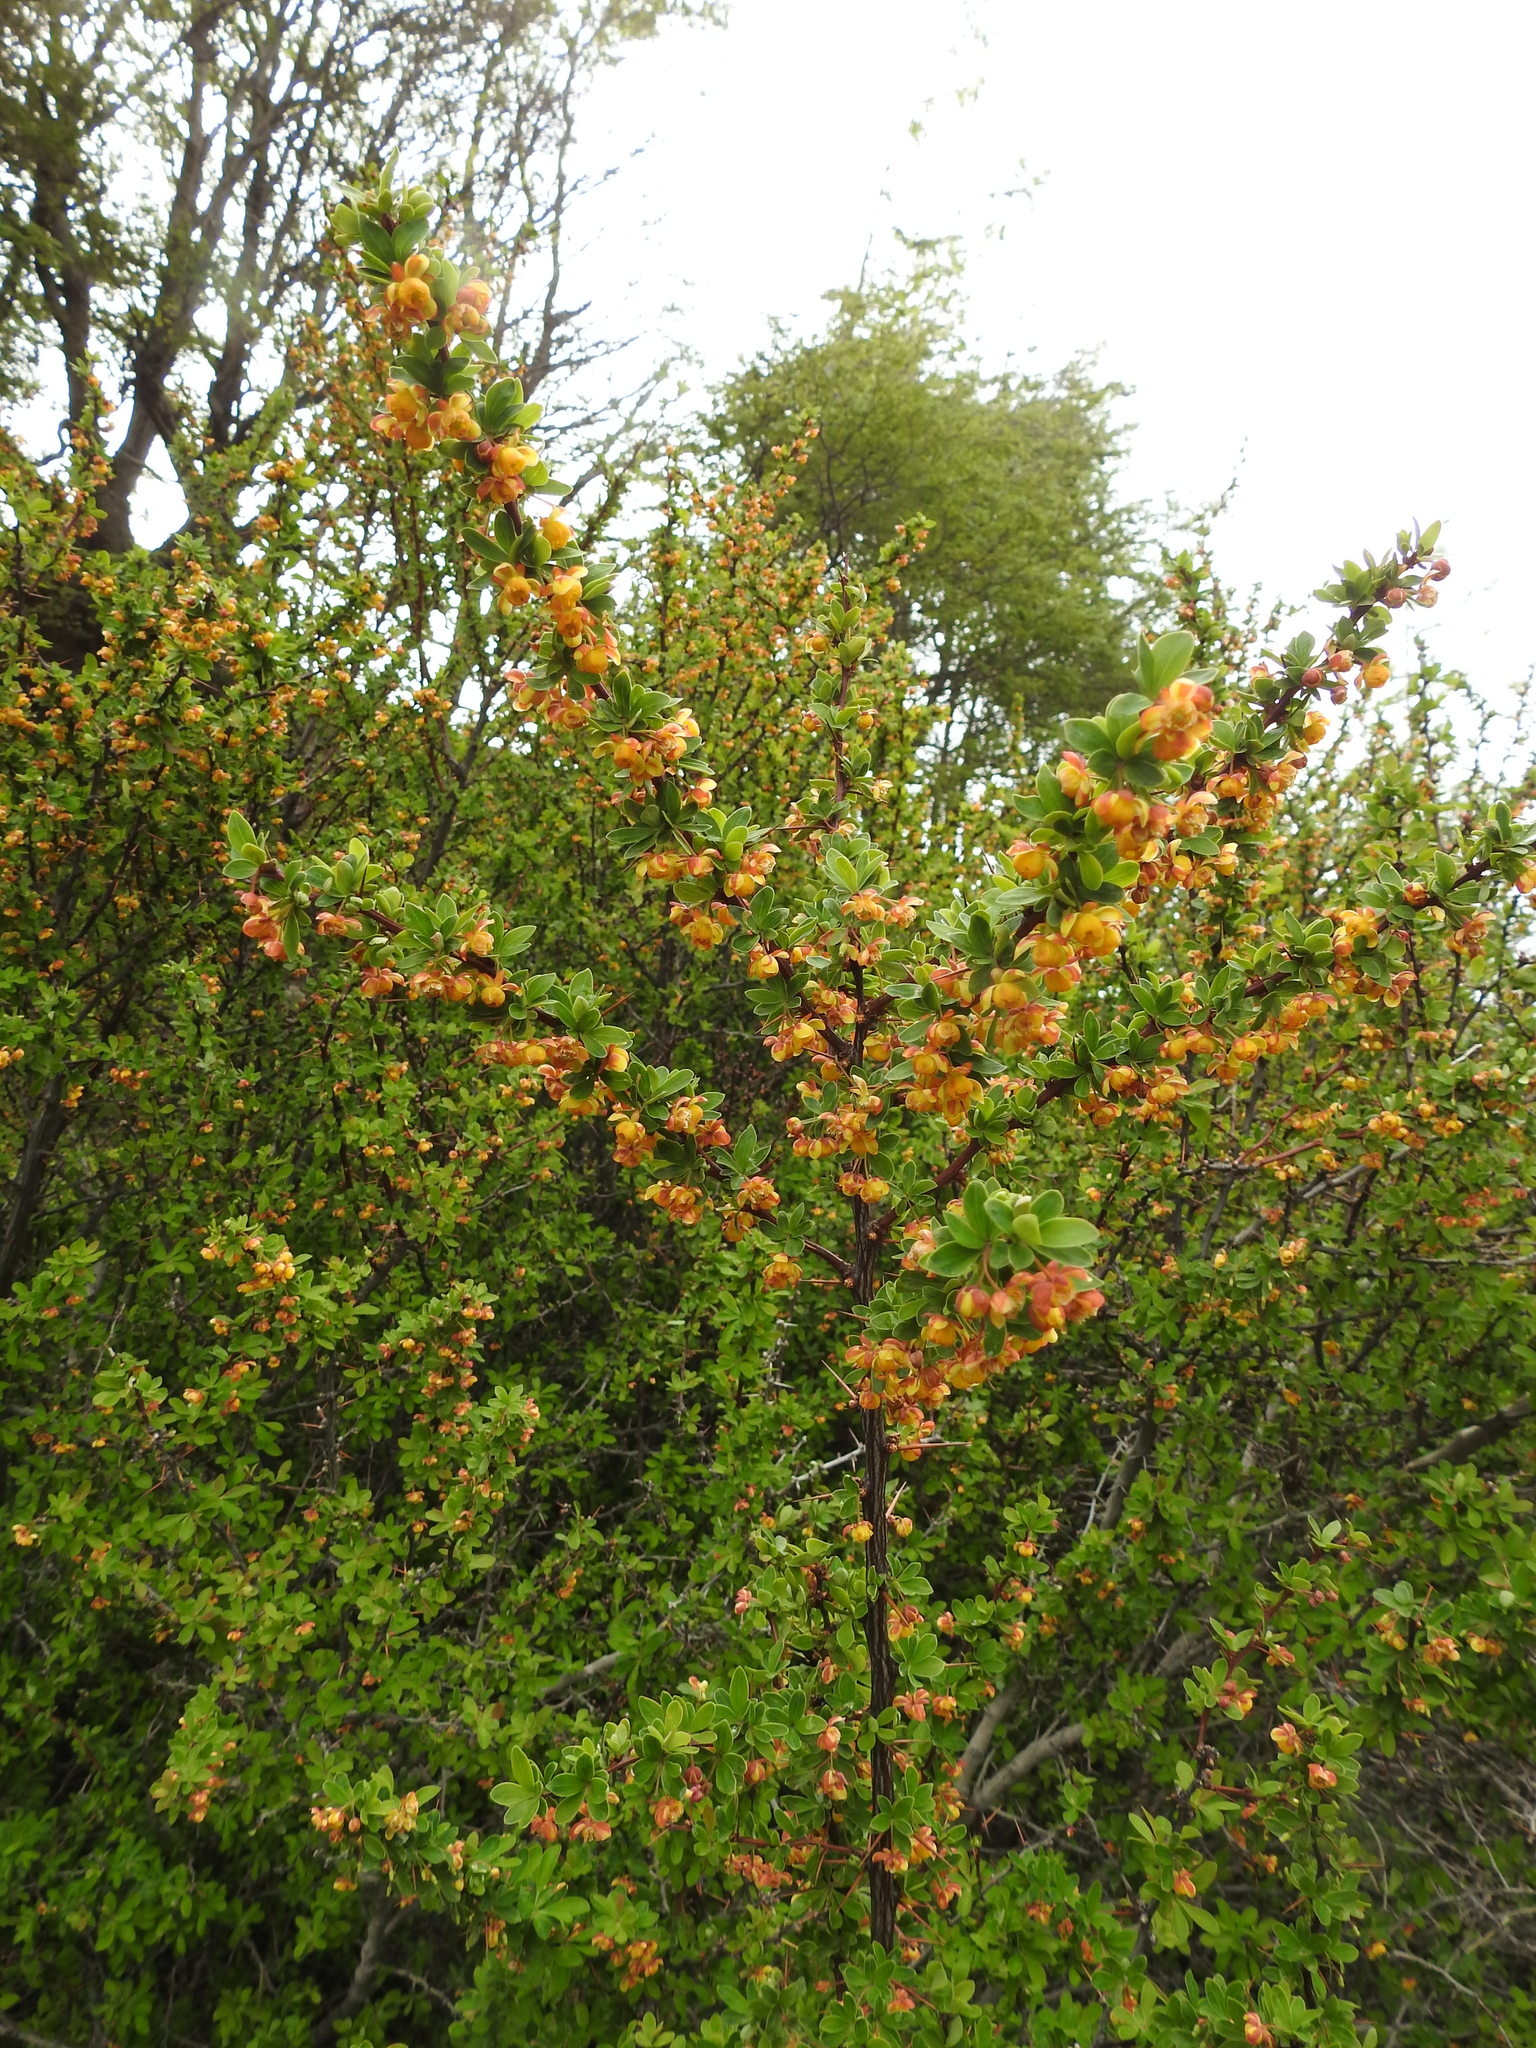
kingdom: Plantae
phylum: Tracheophyta
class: Magnoliopsida
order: Ranunculales
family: Berberidaceae
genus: Berberis
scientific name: Berberis microphylla
